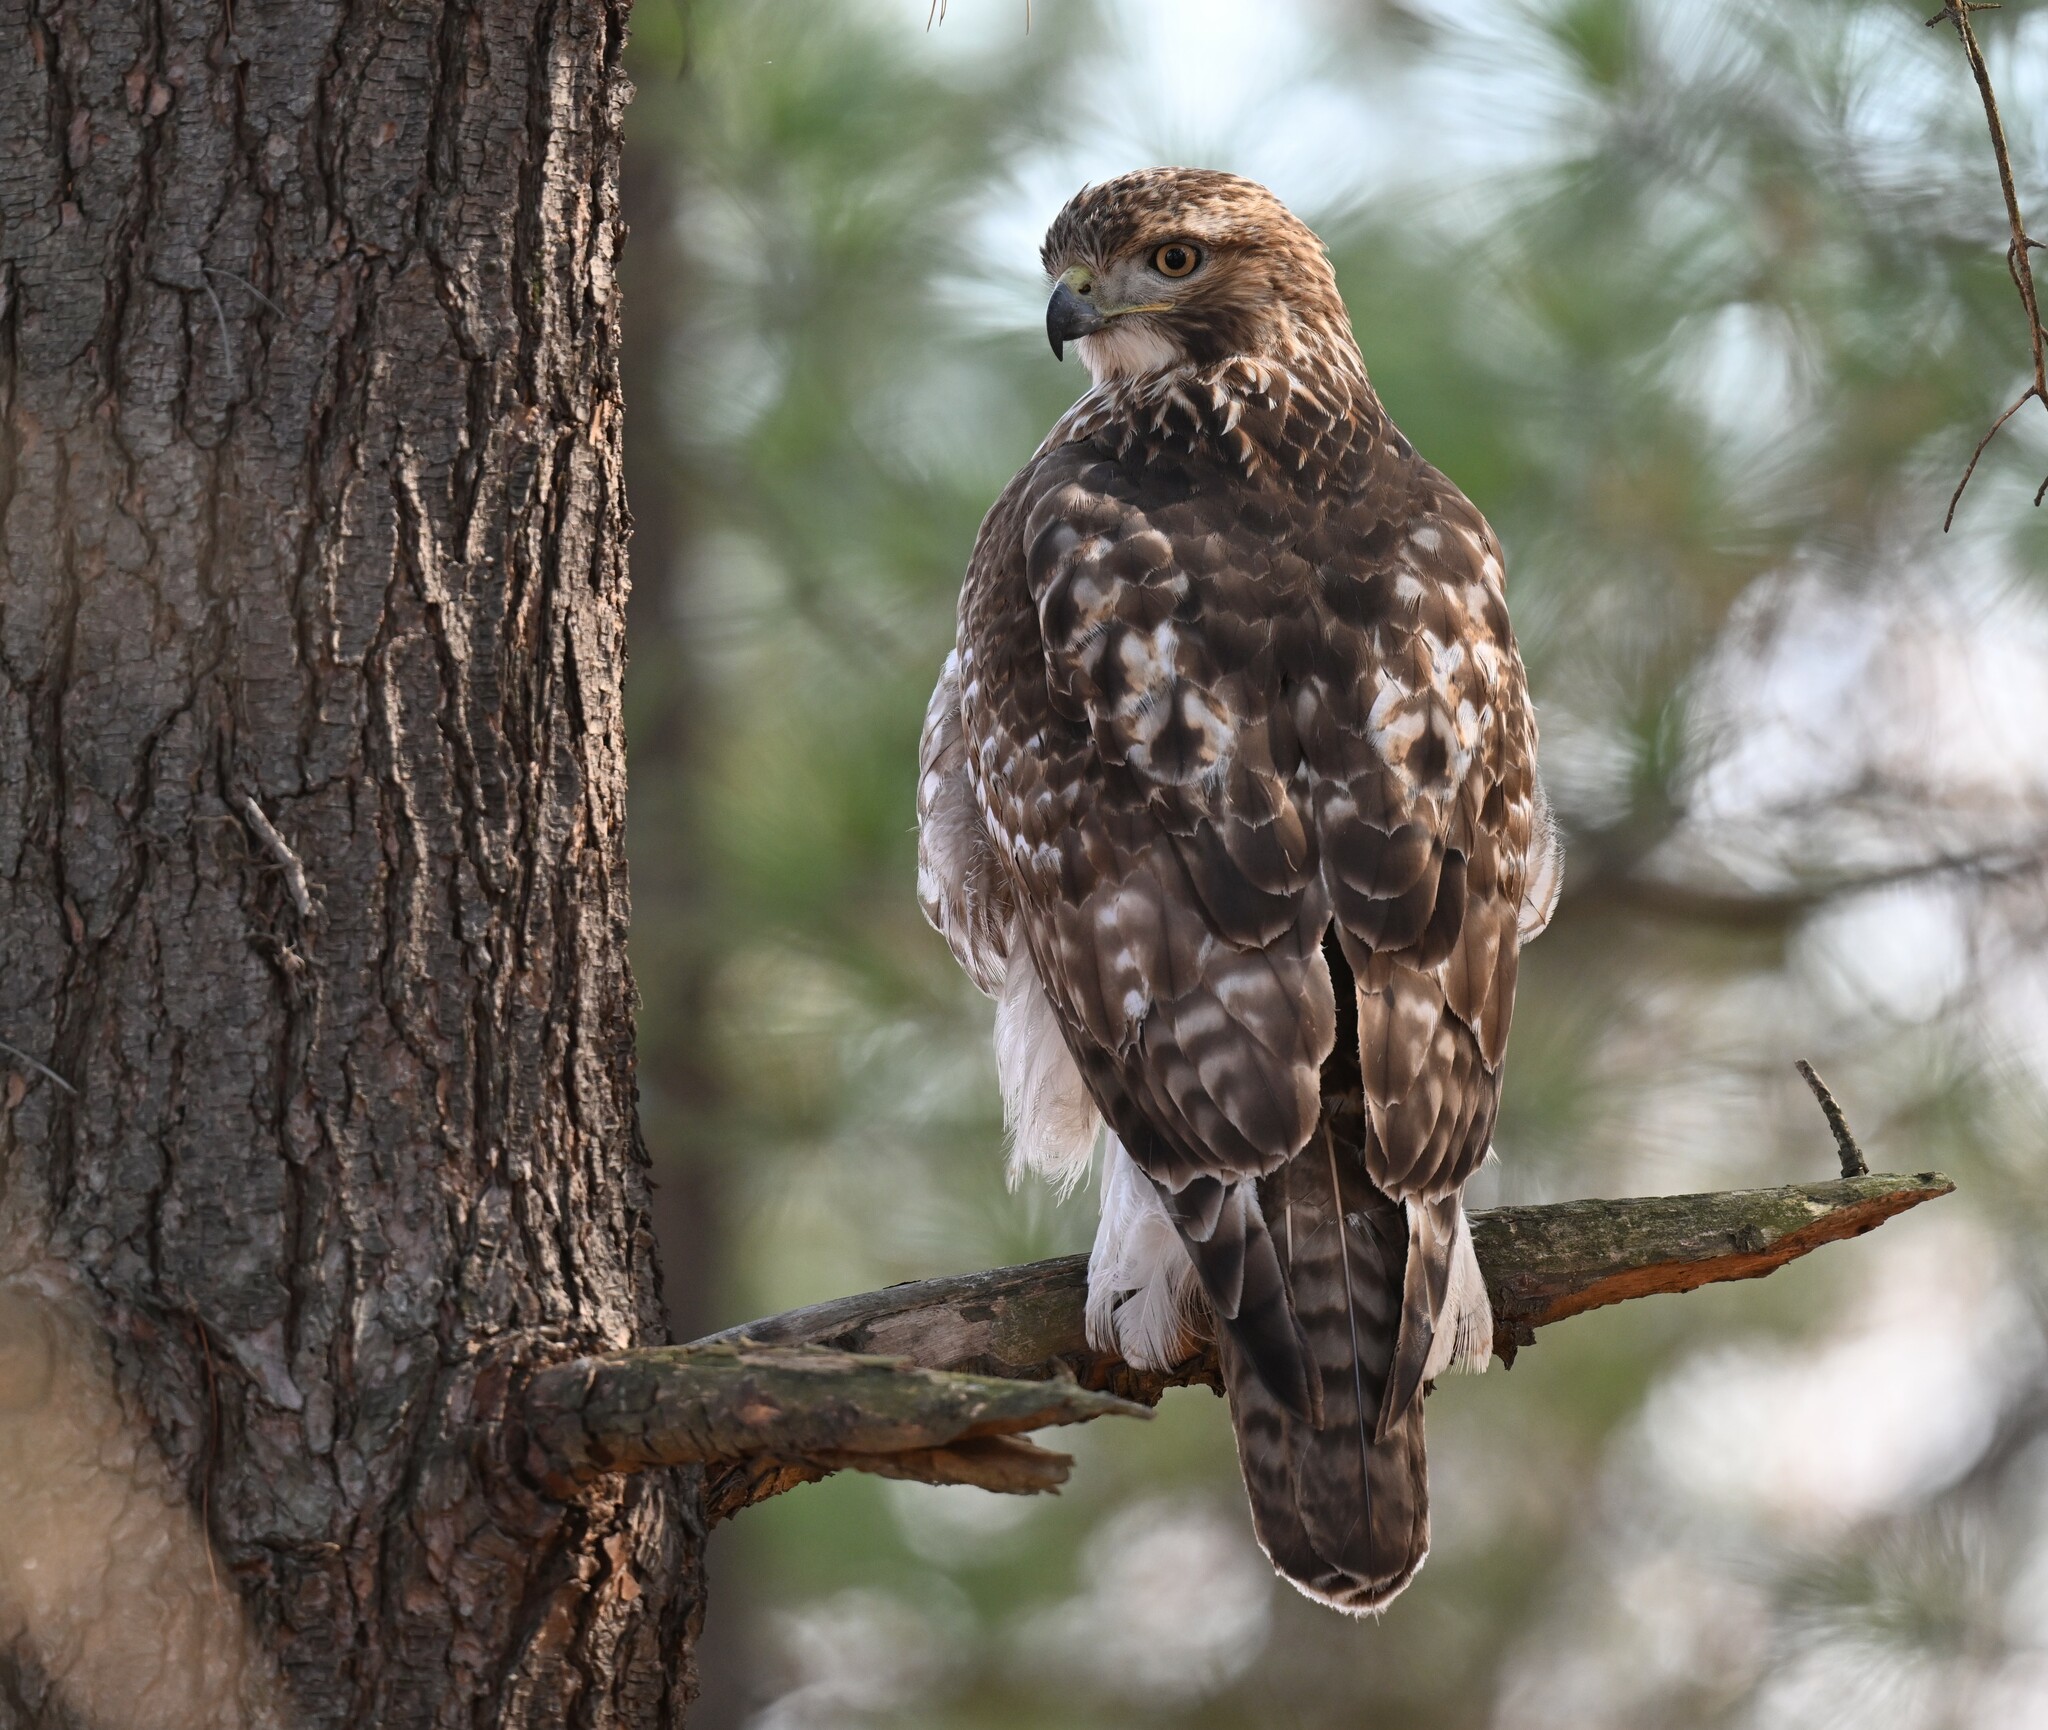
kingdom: Animalia
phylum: Chordata
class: Aves
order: Accipitriformes
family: Accipitridae
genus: Buteo
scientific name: Buteo jamaicensis
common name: Red-tailed hawk
